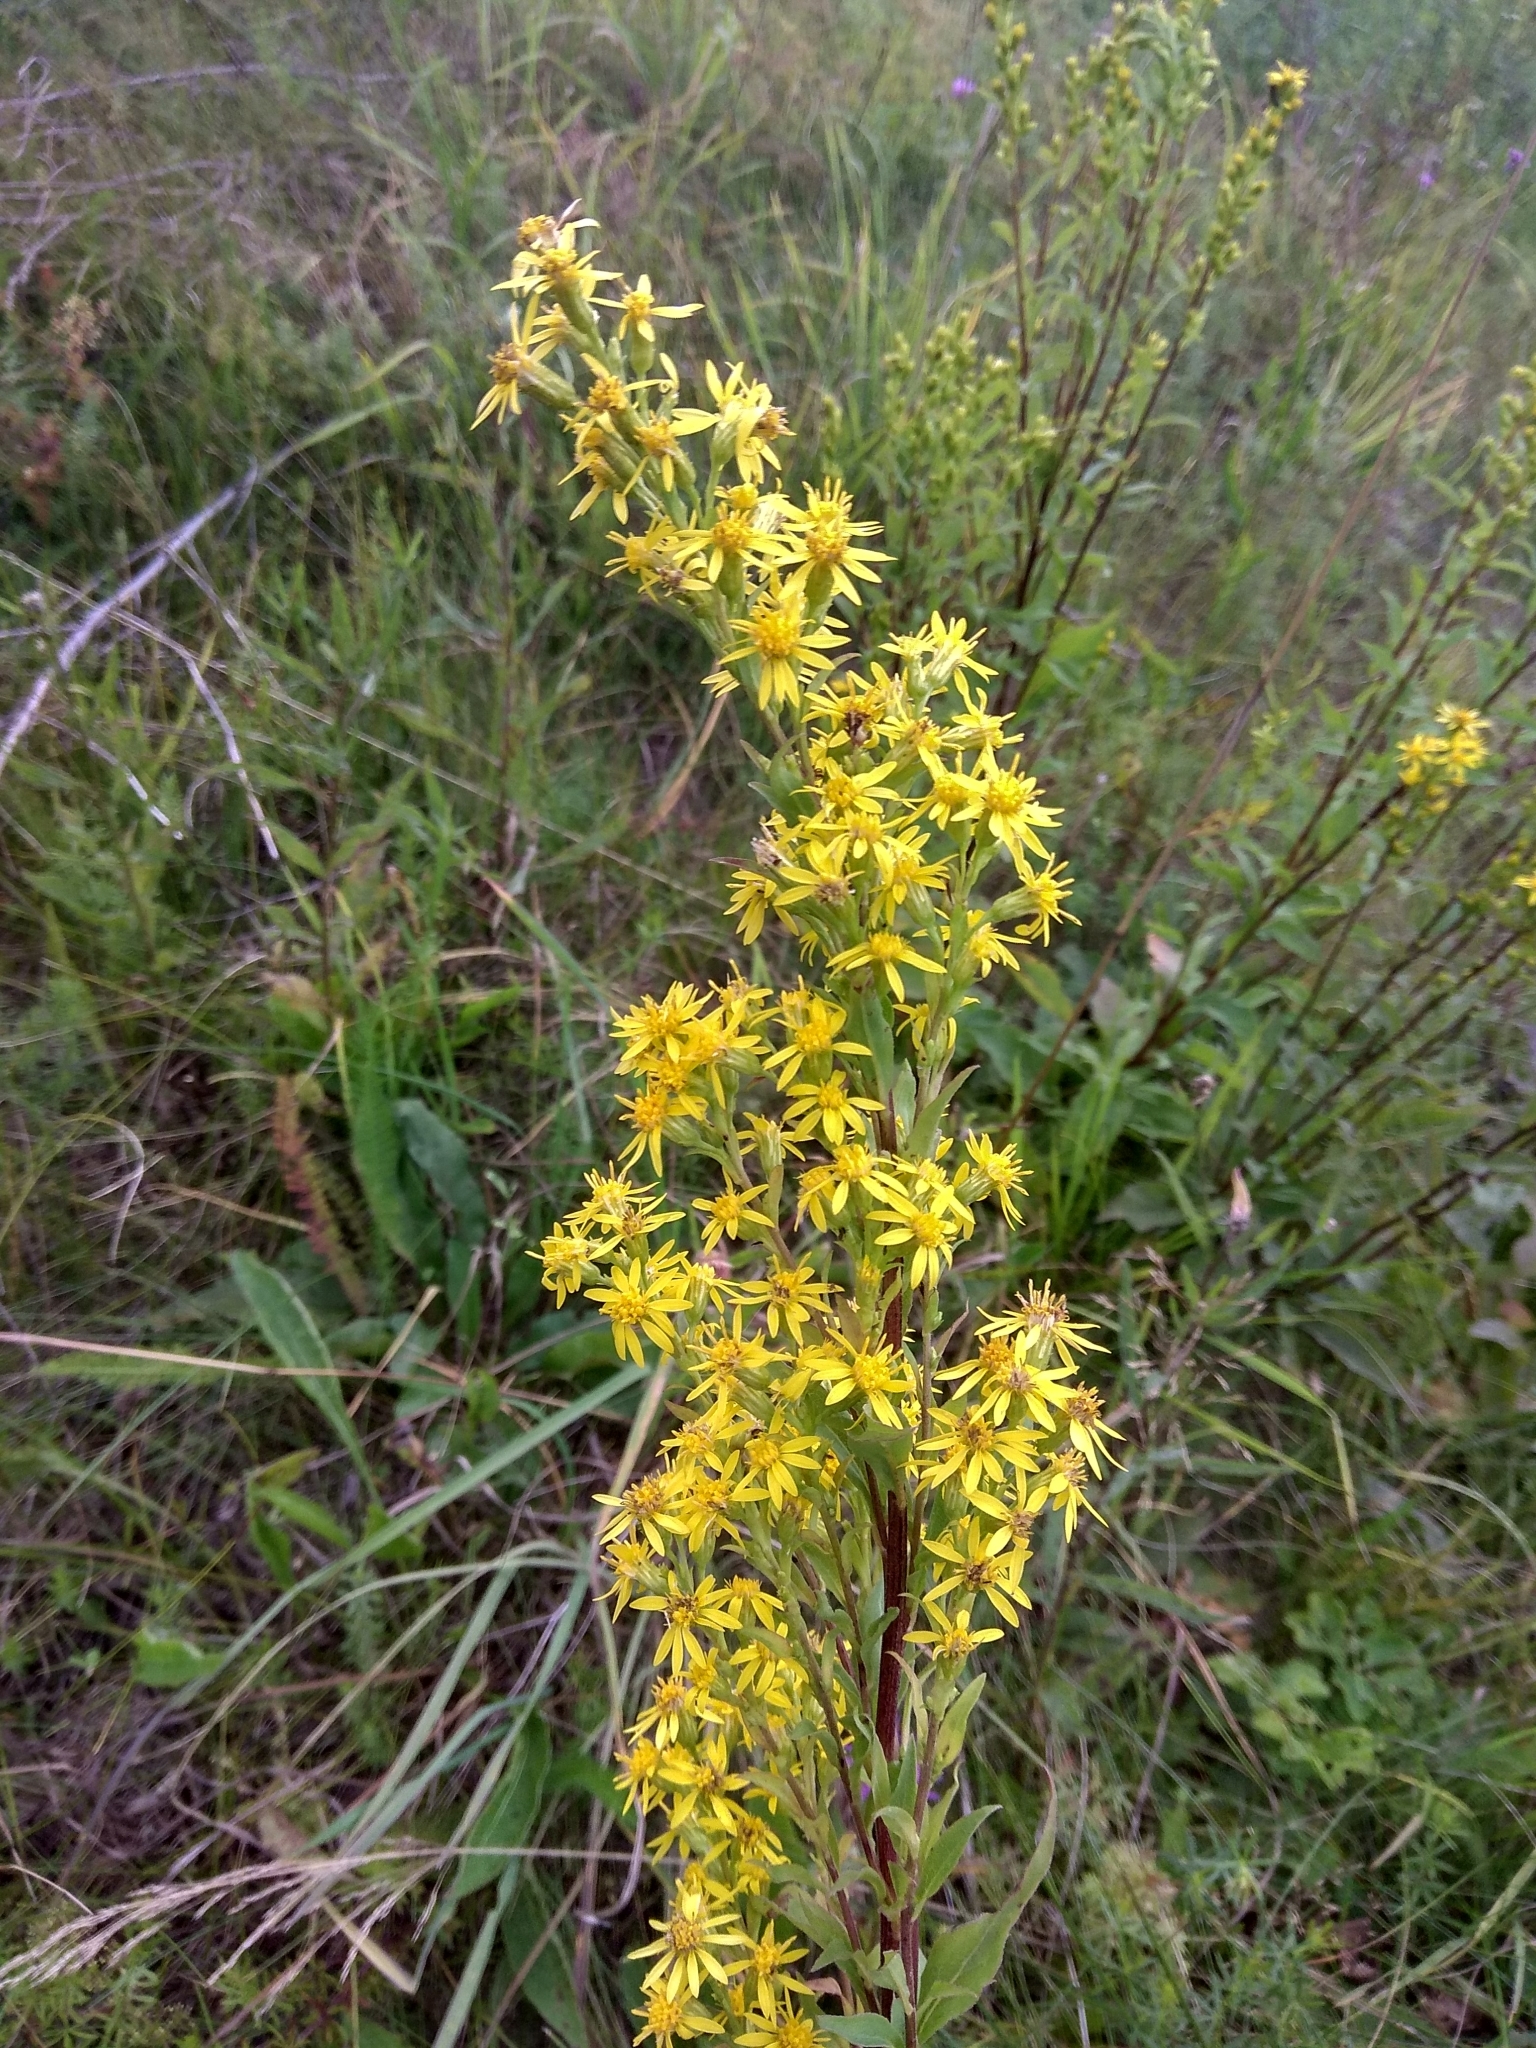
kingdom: Plantae
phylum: Tracheophyta
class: Magnoliopsida
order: Asterales
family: Asteraceae
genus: Solidago
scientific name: Solidago virgaurea
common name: Goldenrod
